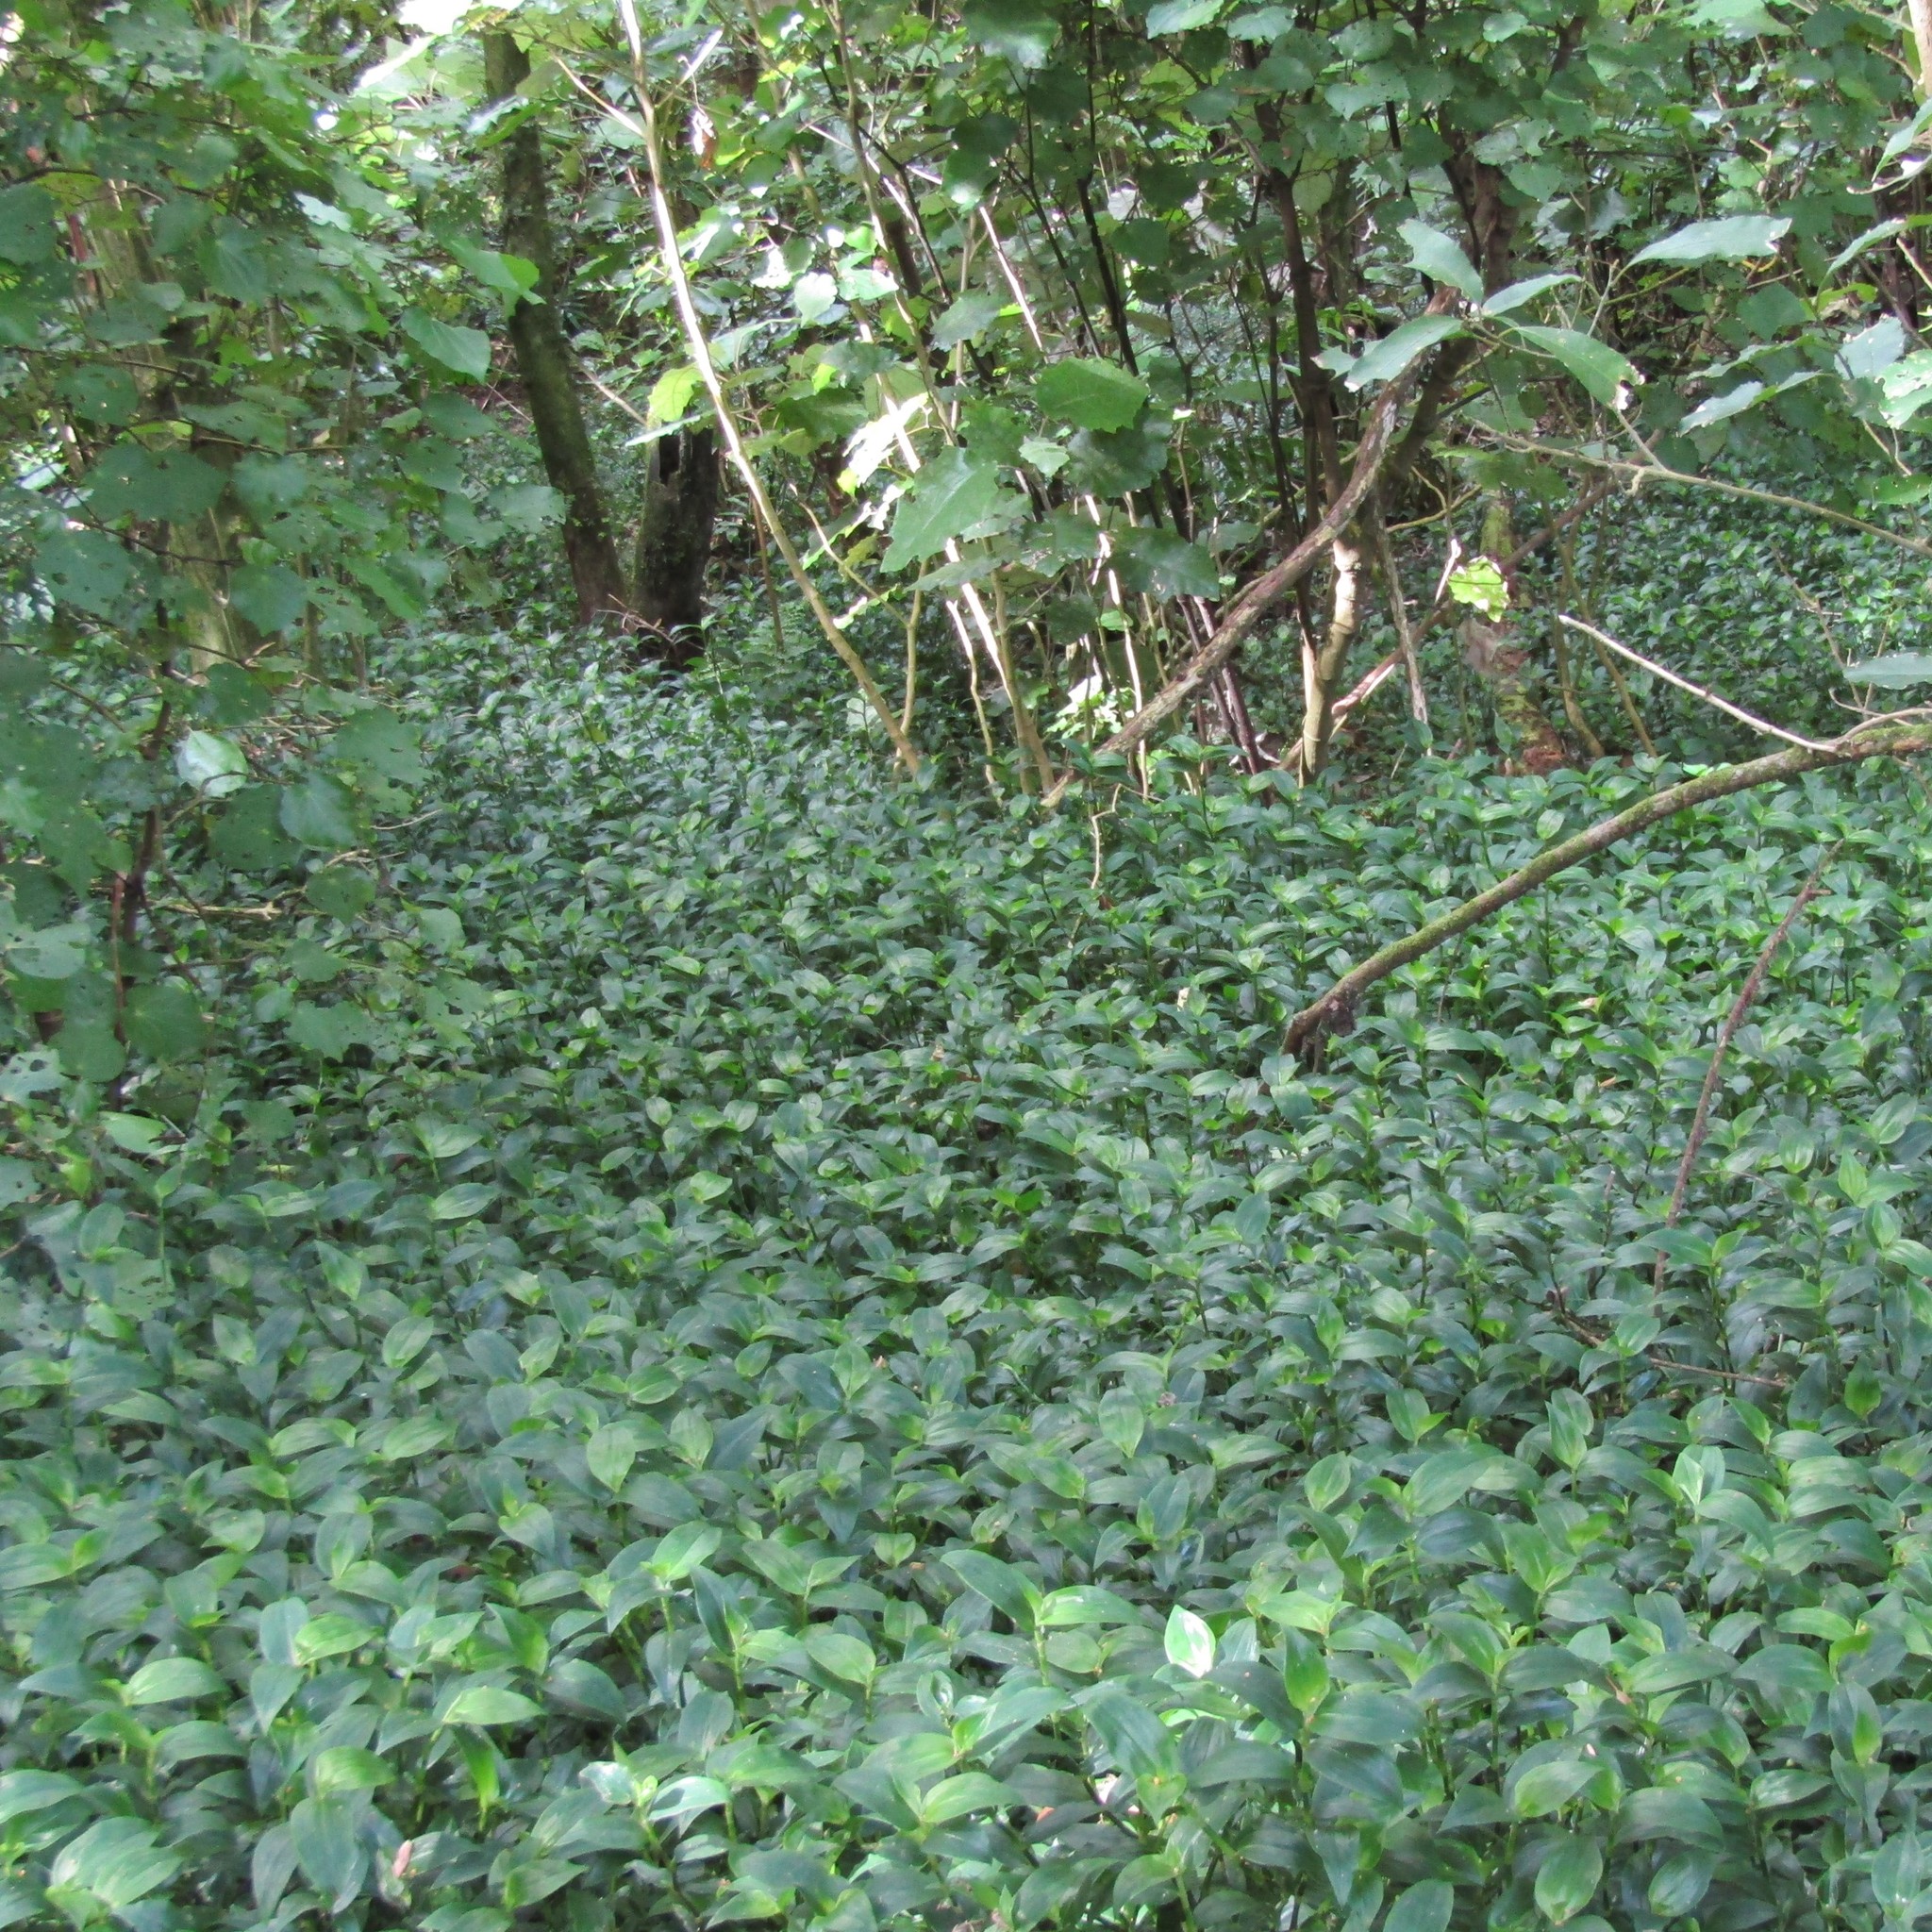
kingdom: Plantae
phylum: Tracheophyta
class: Liliopsida
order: Commelinales
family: Commelinaceae
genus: Tradescantia
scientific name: Tradescantia fluminensis
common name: Wandering-jew
